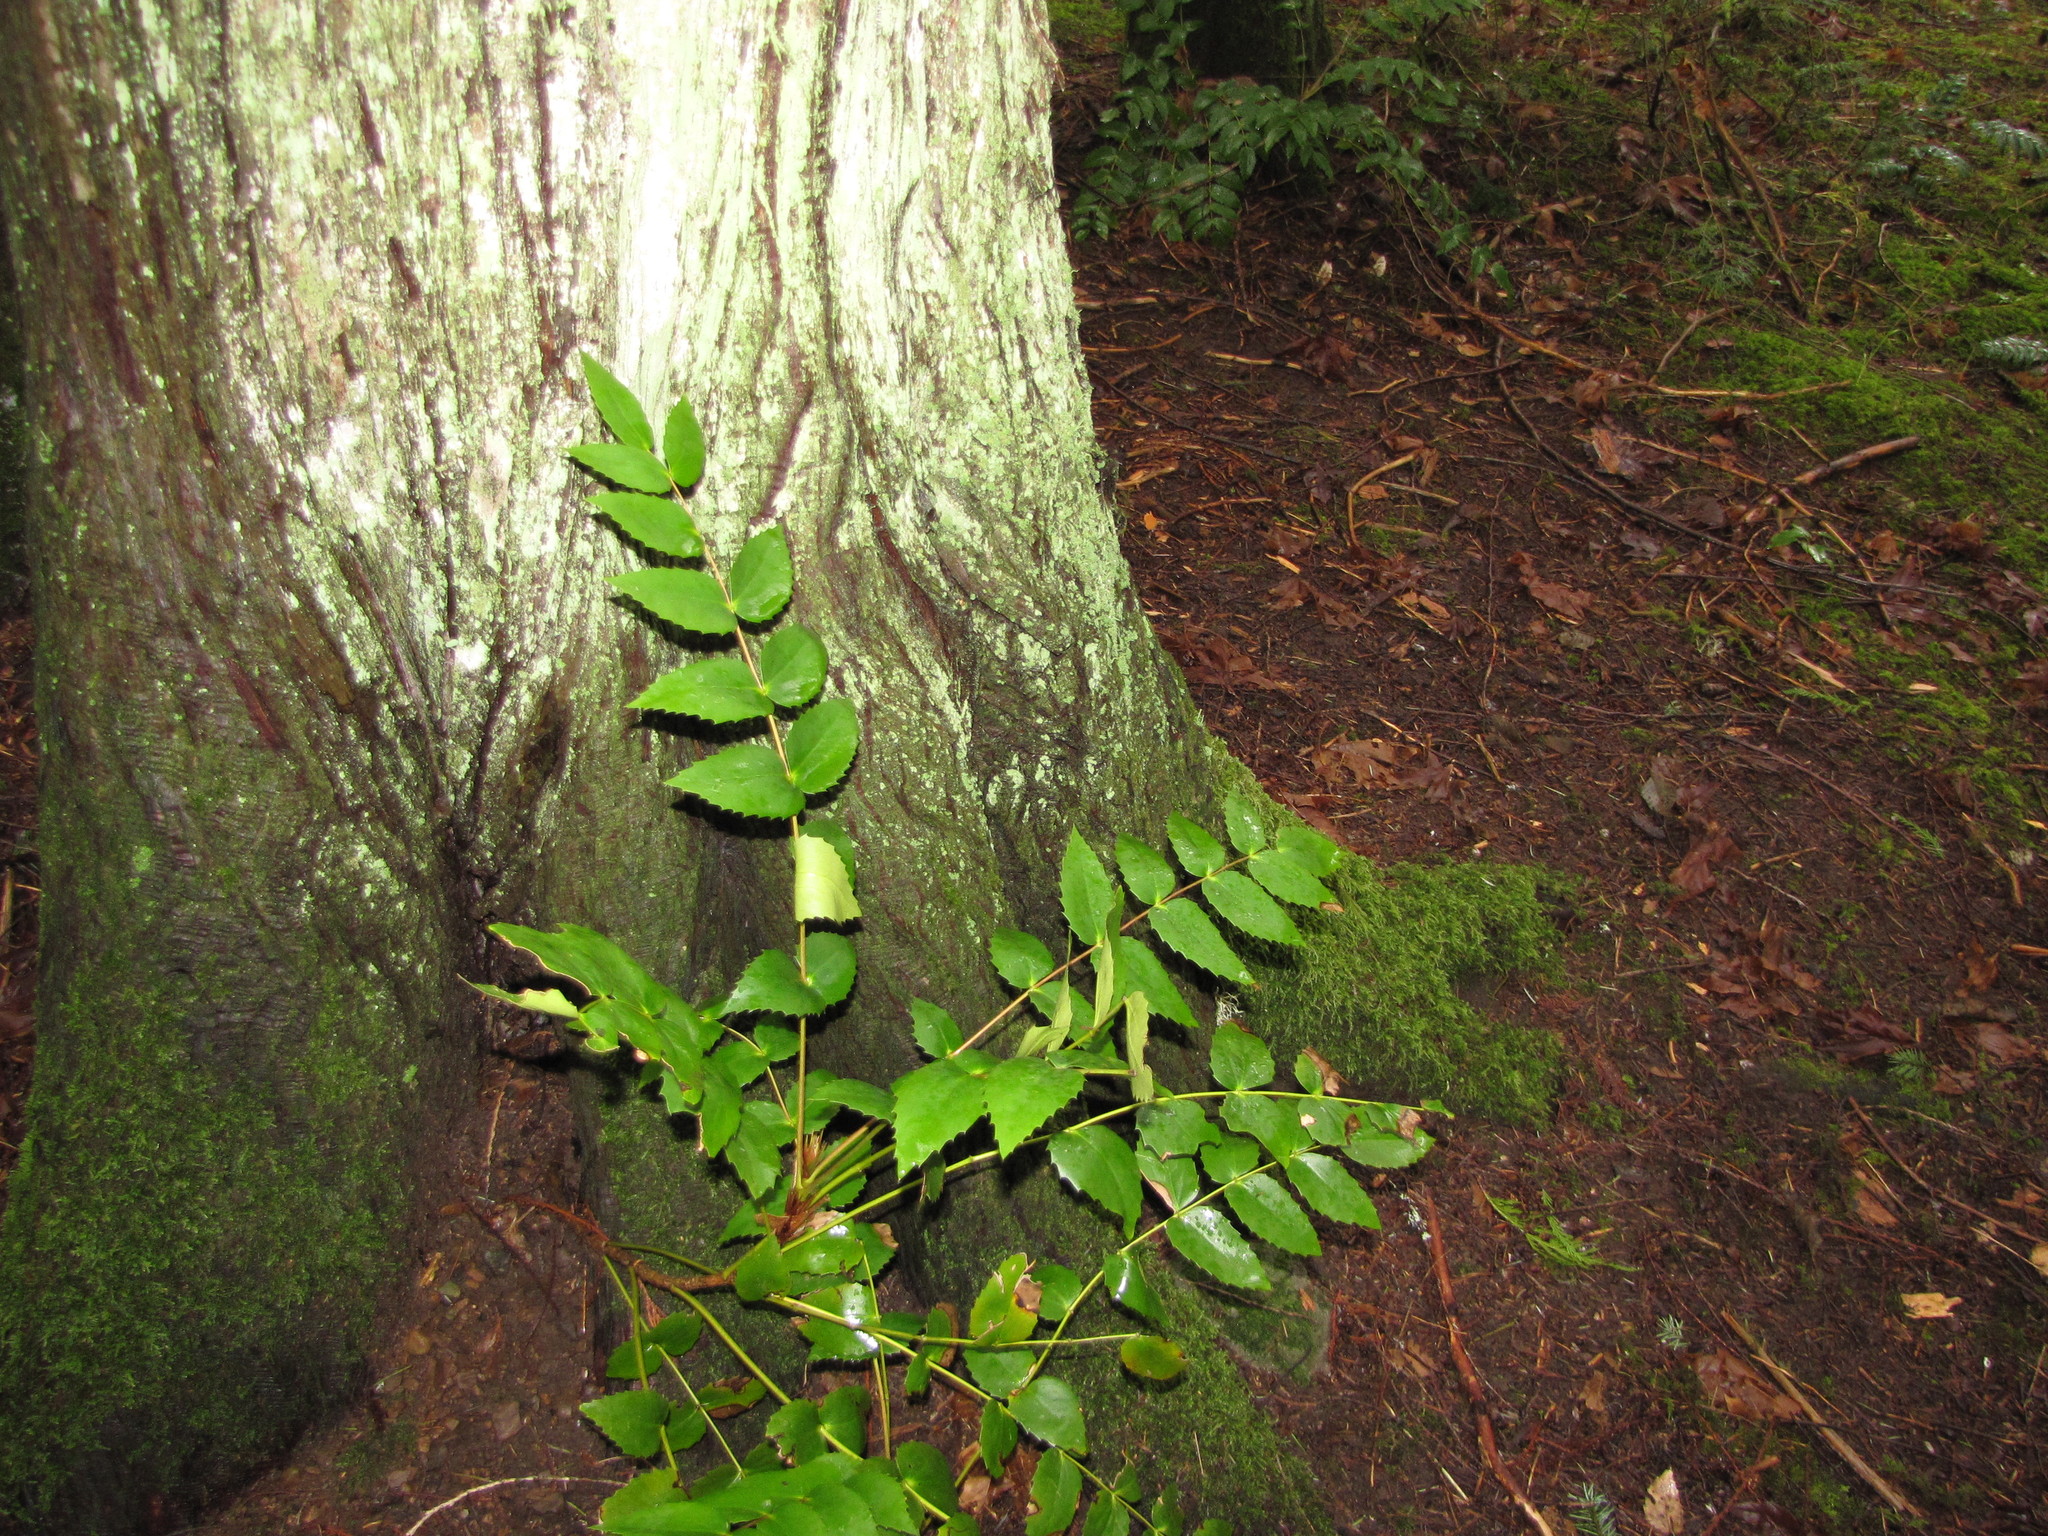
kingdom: Plantae
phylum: Tracheophyta
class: Magnoliopsida
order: Ranunculales
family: Berberidaceae
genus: Mahonia
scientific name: Mahonia nervosa
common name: Cascade oregon-grape
